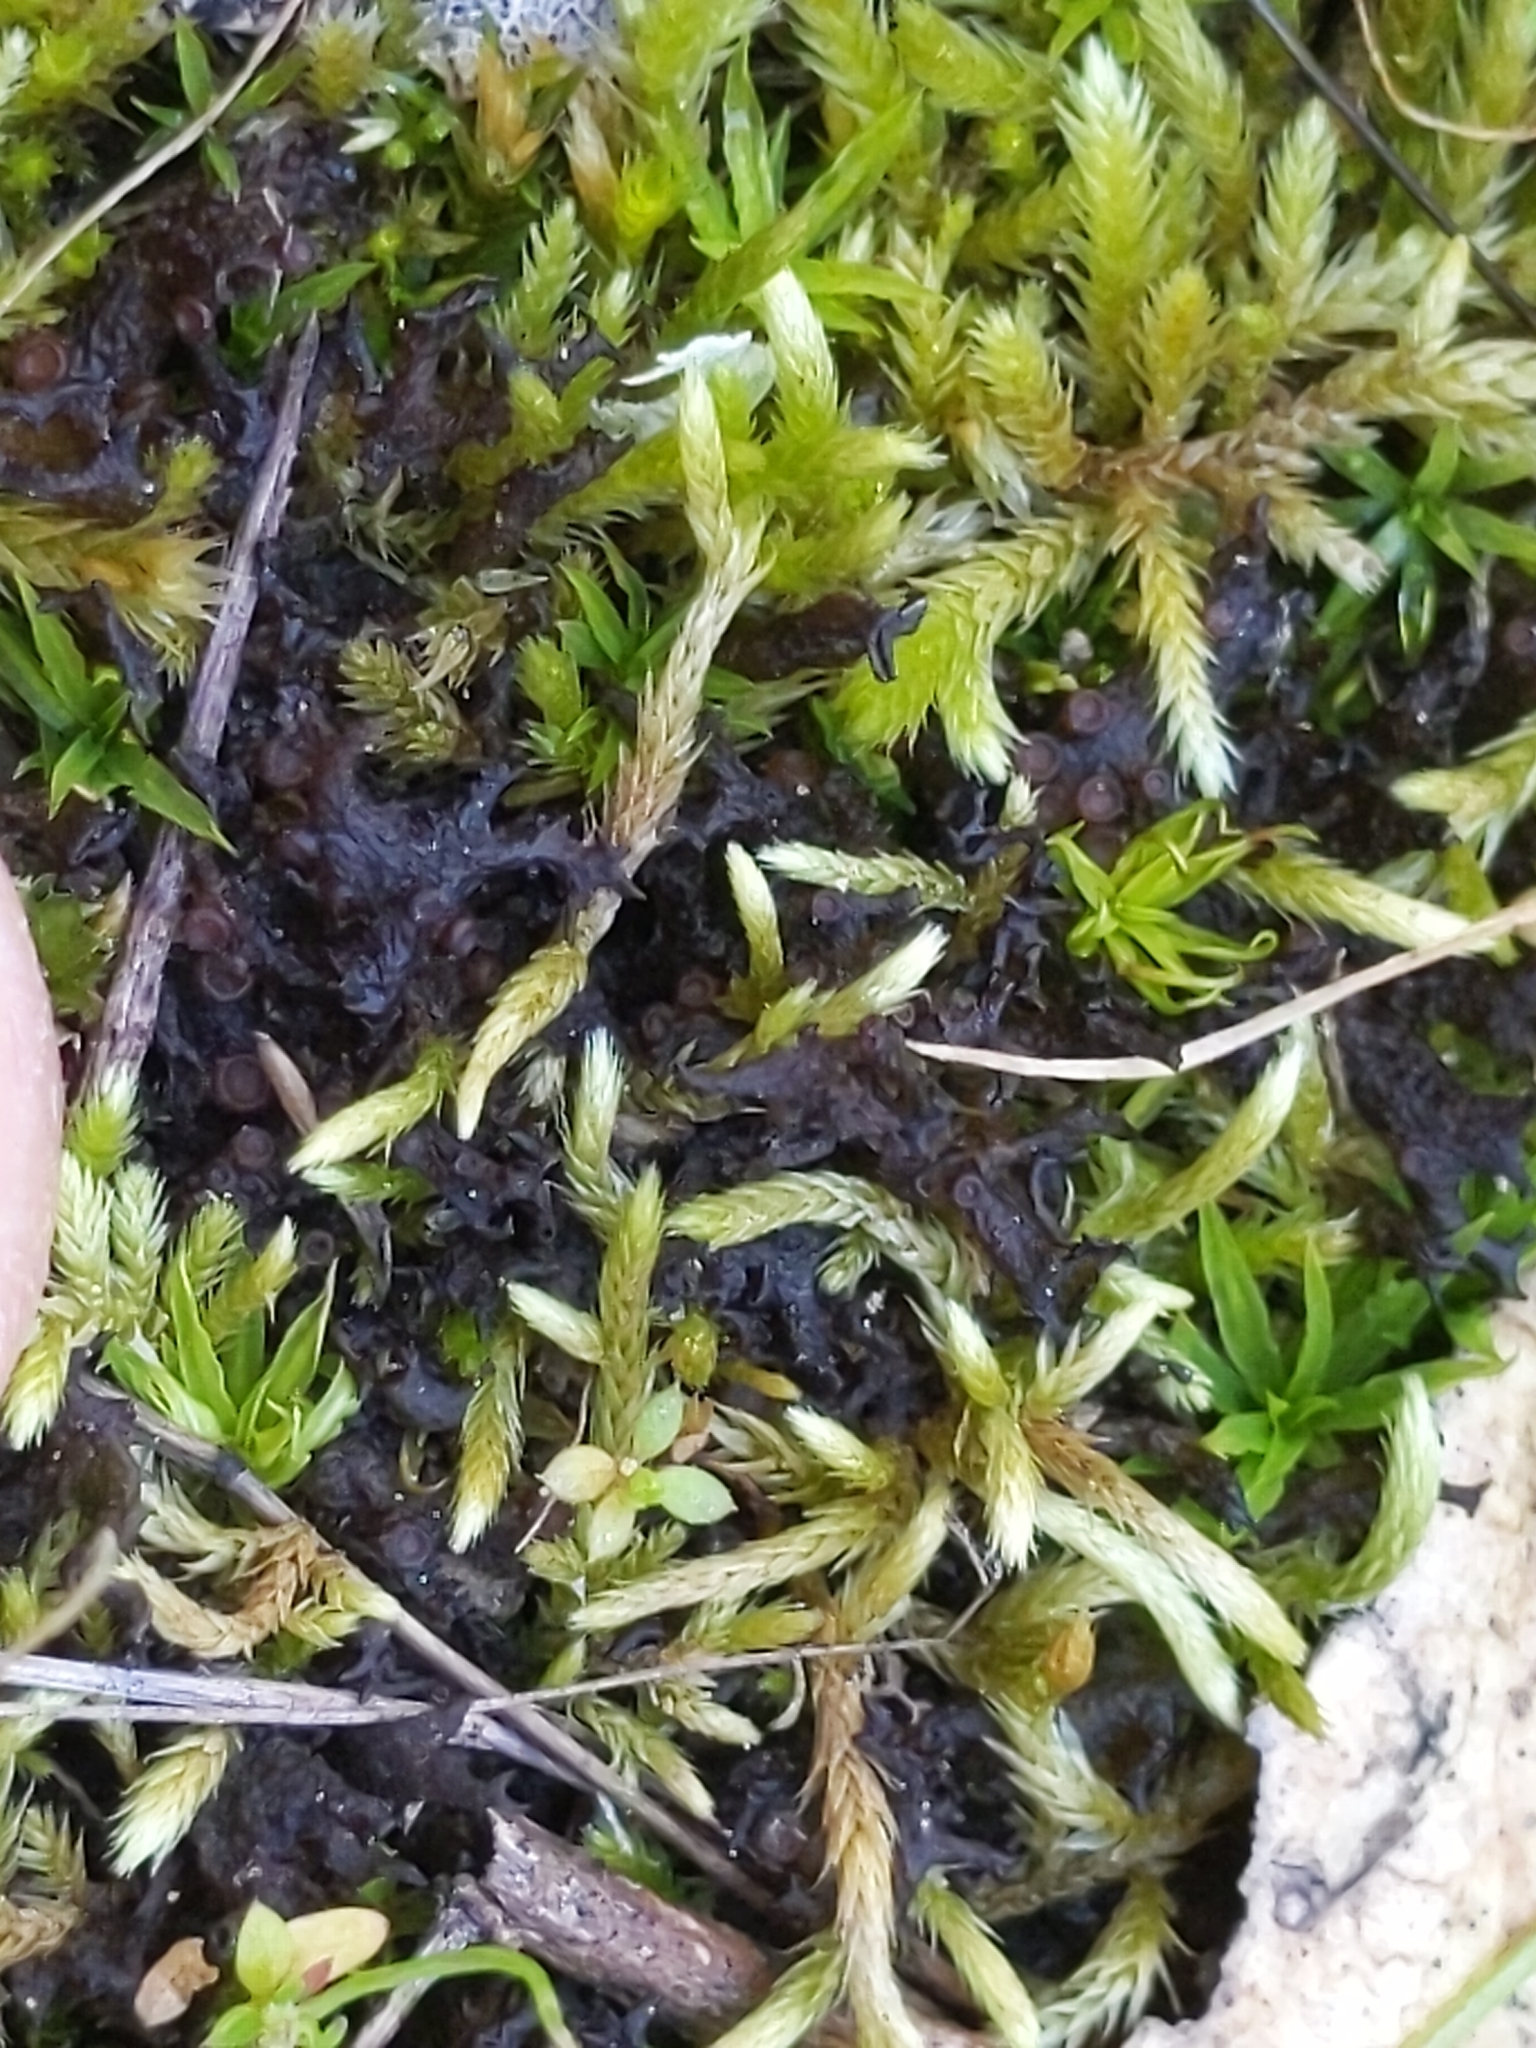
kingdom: Fungi
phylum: Ascomycota
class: Lecanoromycetes
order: Peltigerales
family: Collemataceae
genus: Scytinium
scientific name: Scytinium palmatum
